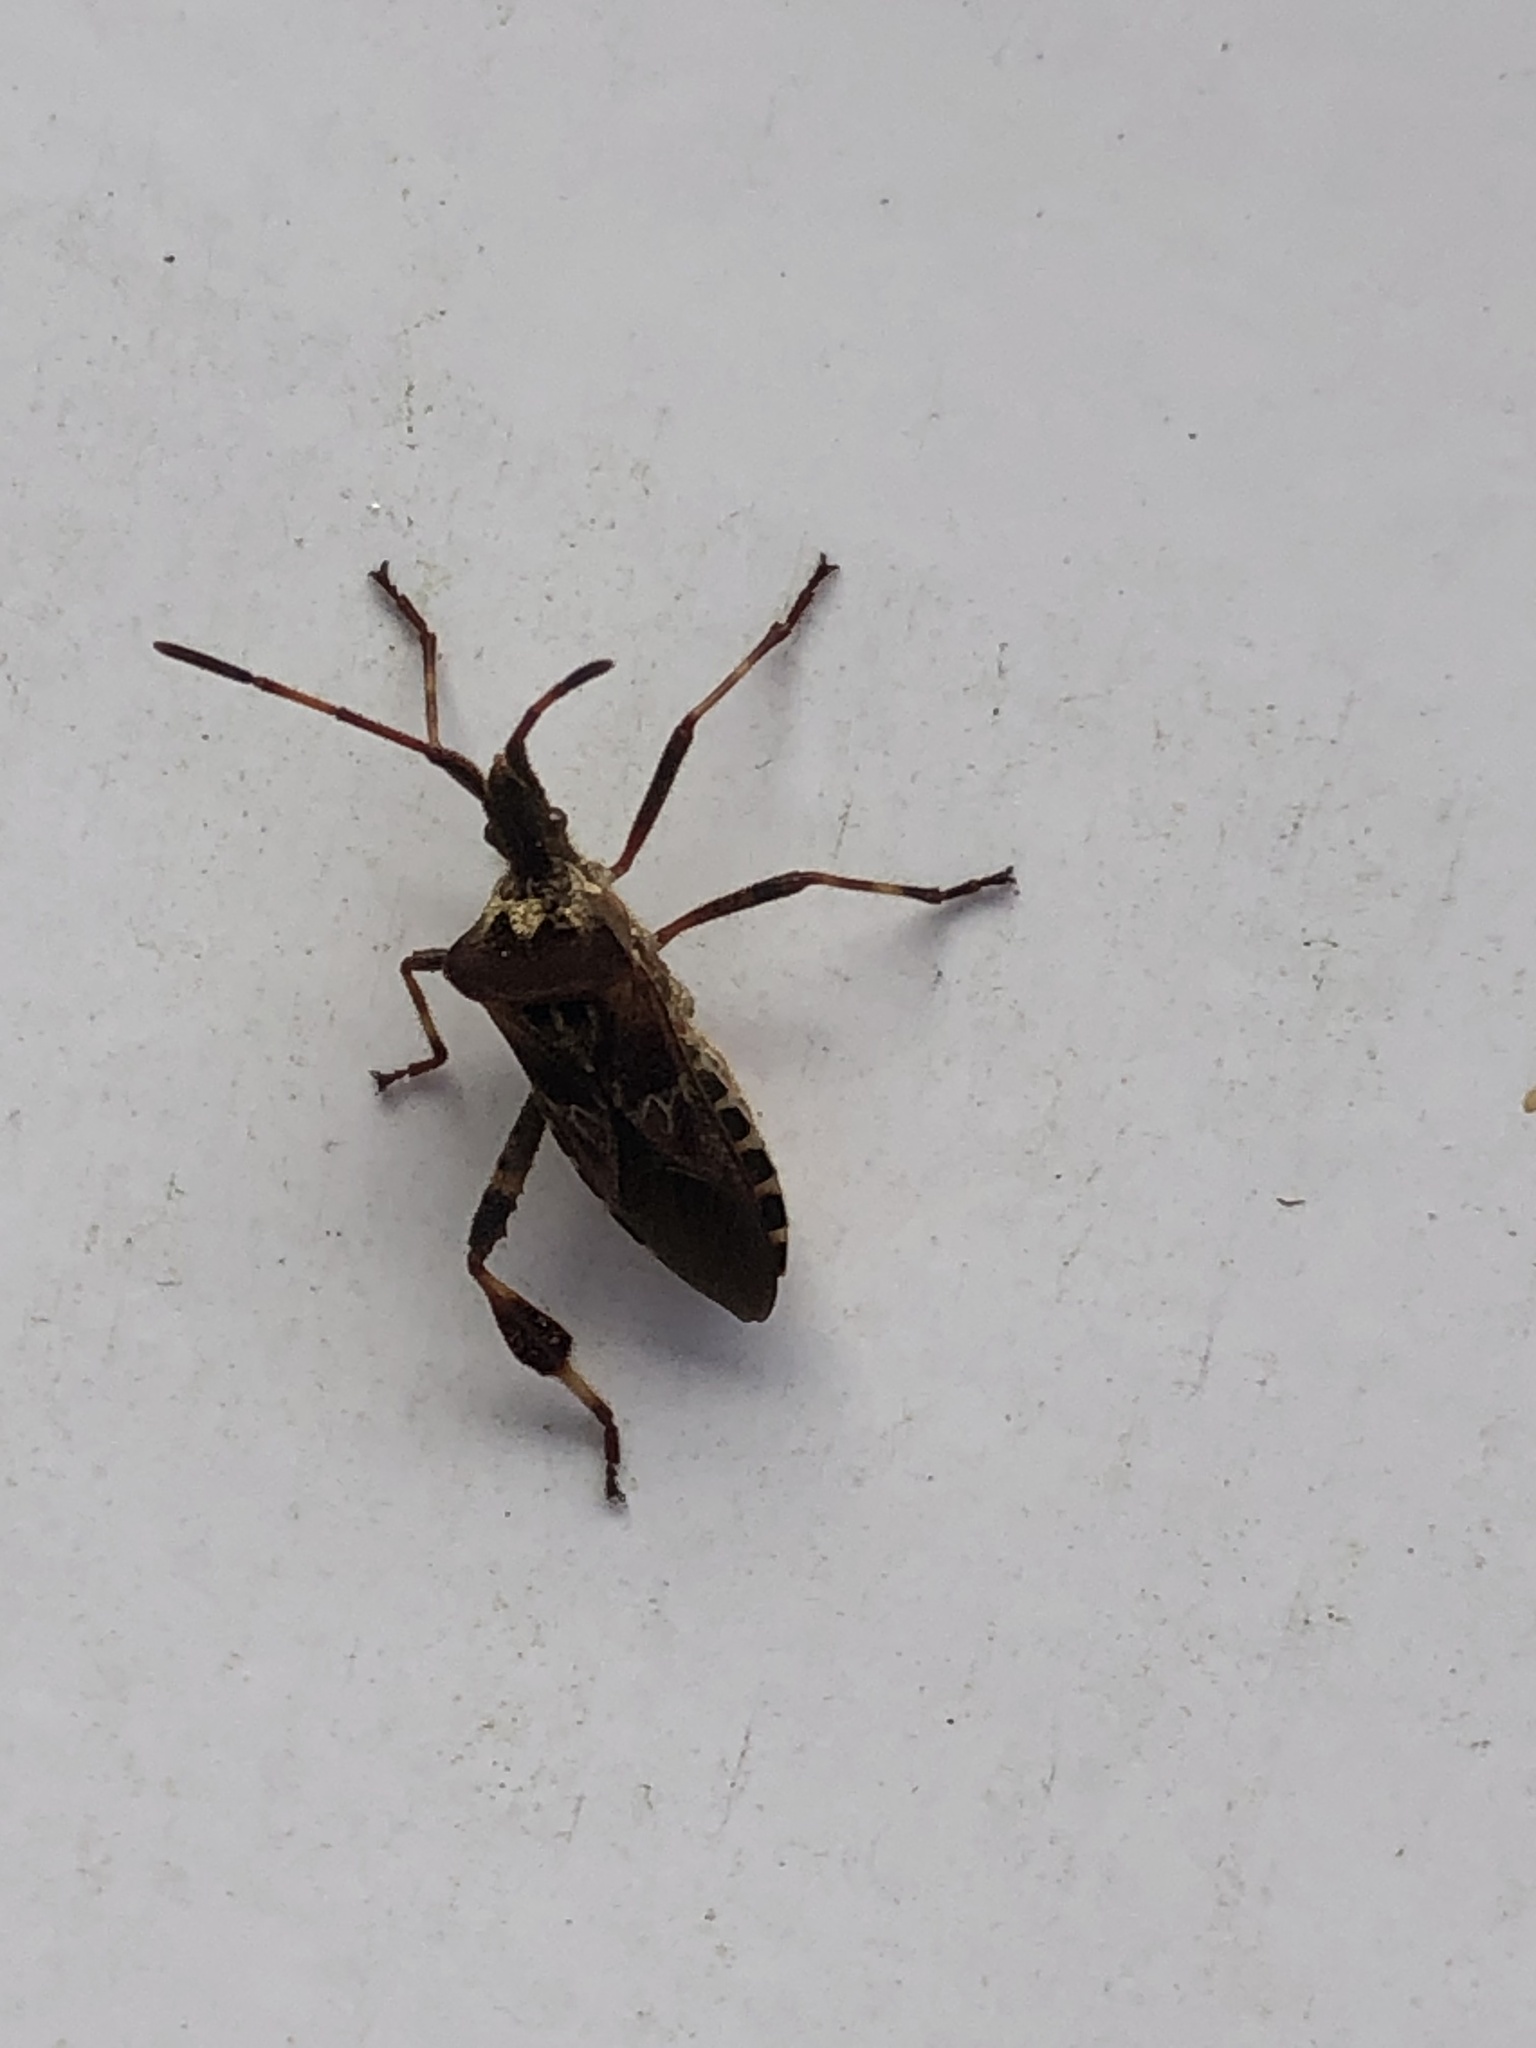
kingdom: Animalia
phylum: Arthropoda
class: Insecta
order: Hemiptera
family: Coreidae
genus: Leptoglossus
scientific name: Leptoglossus occidentalis
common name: Western conifer-seed bug
